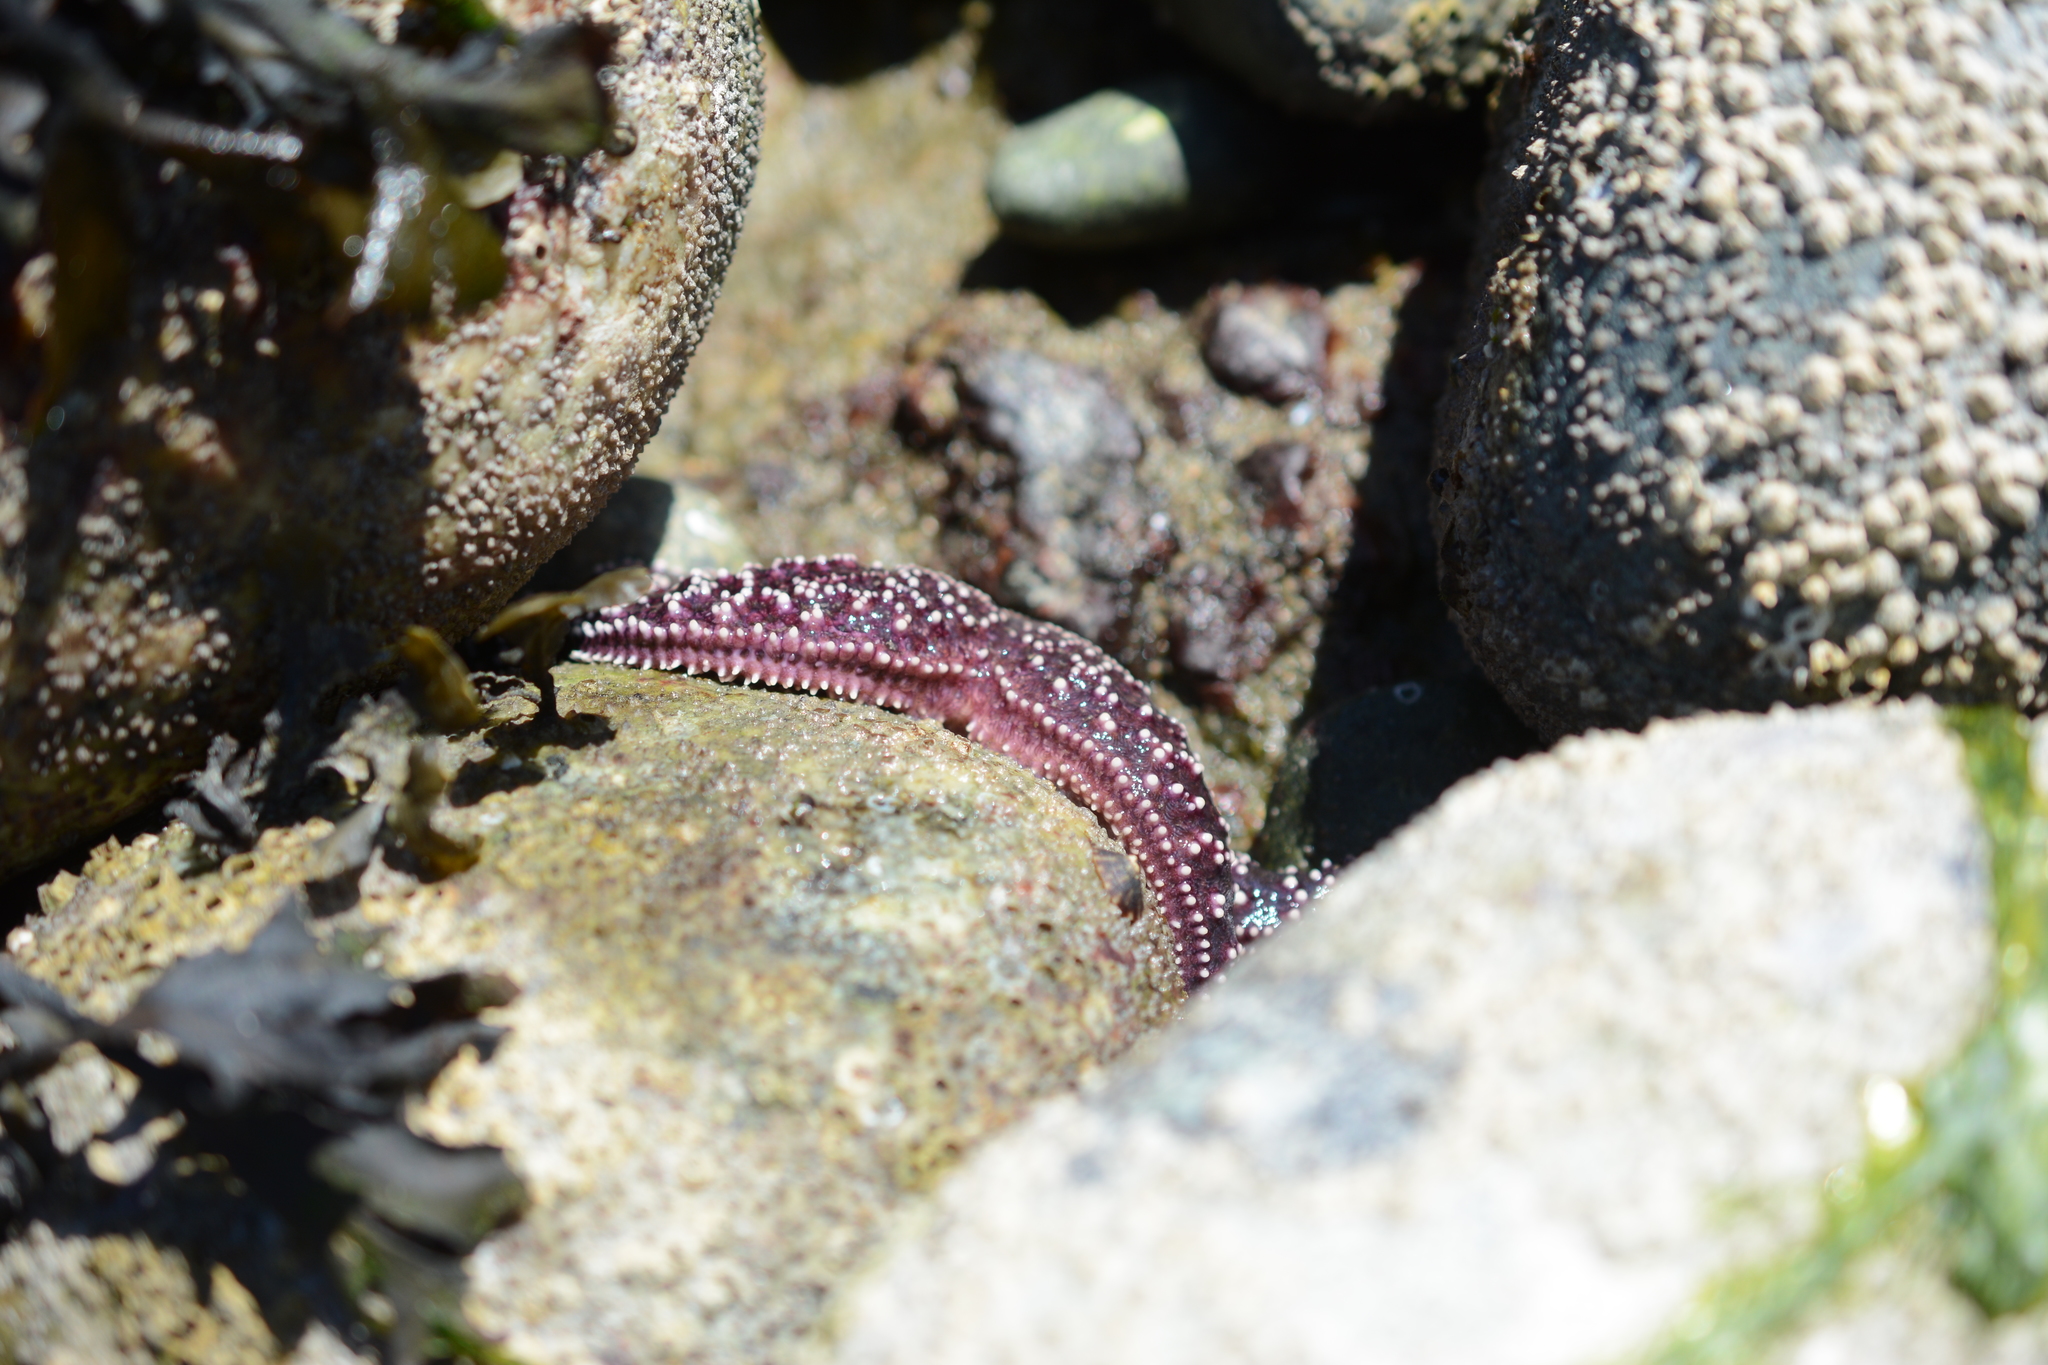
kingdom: Animalia
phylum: Echinodermata
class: Asteroidea
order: Forcipulatida
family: Asteriidae
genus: Pisaster
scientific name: Pisaster ochraceus
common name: Ochre stars
